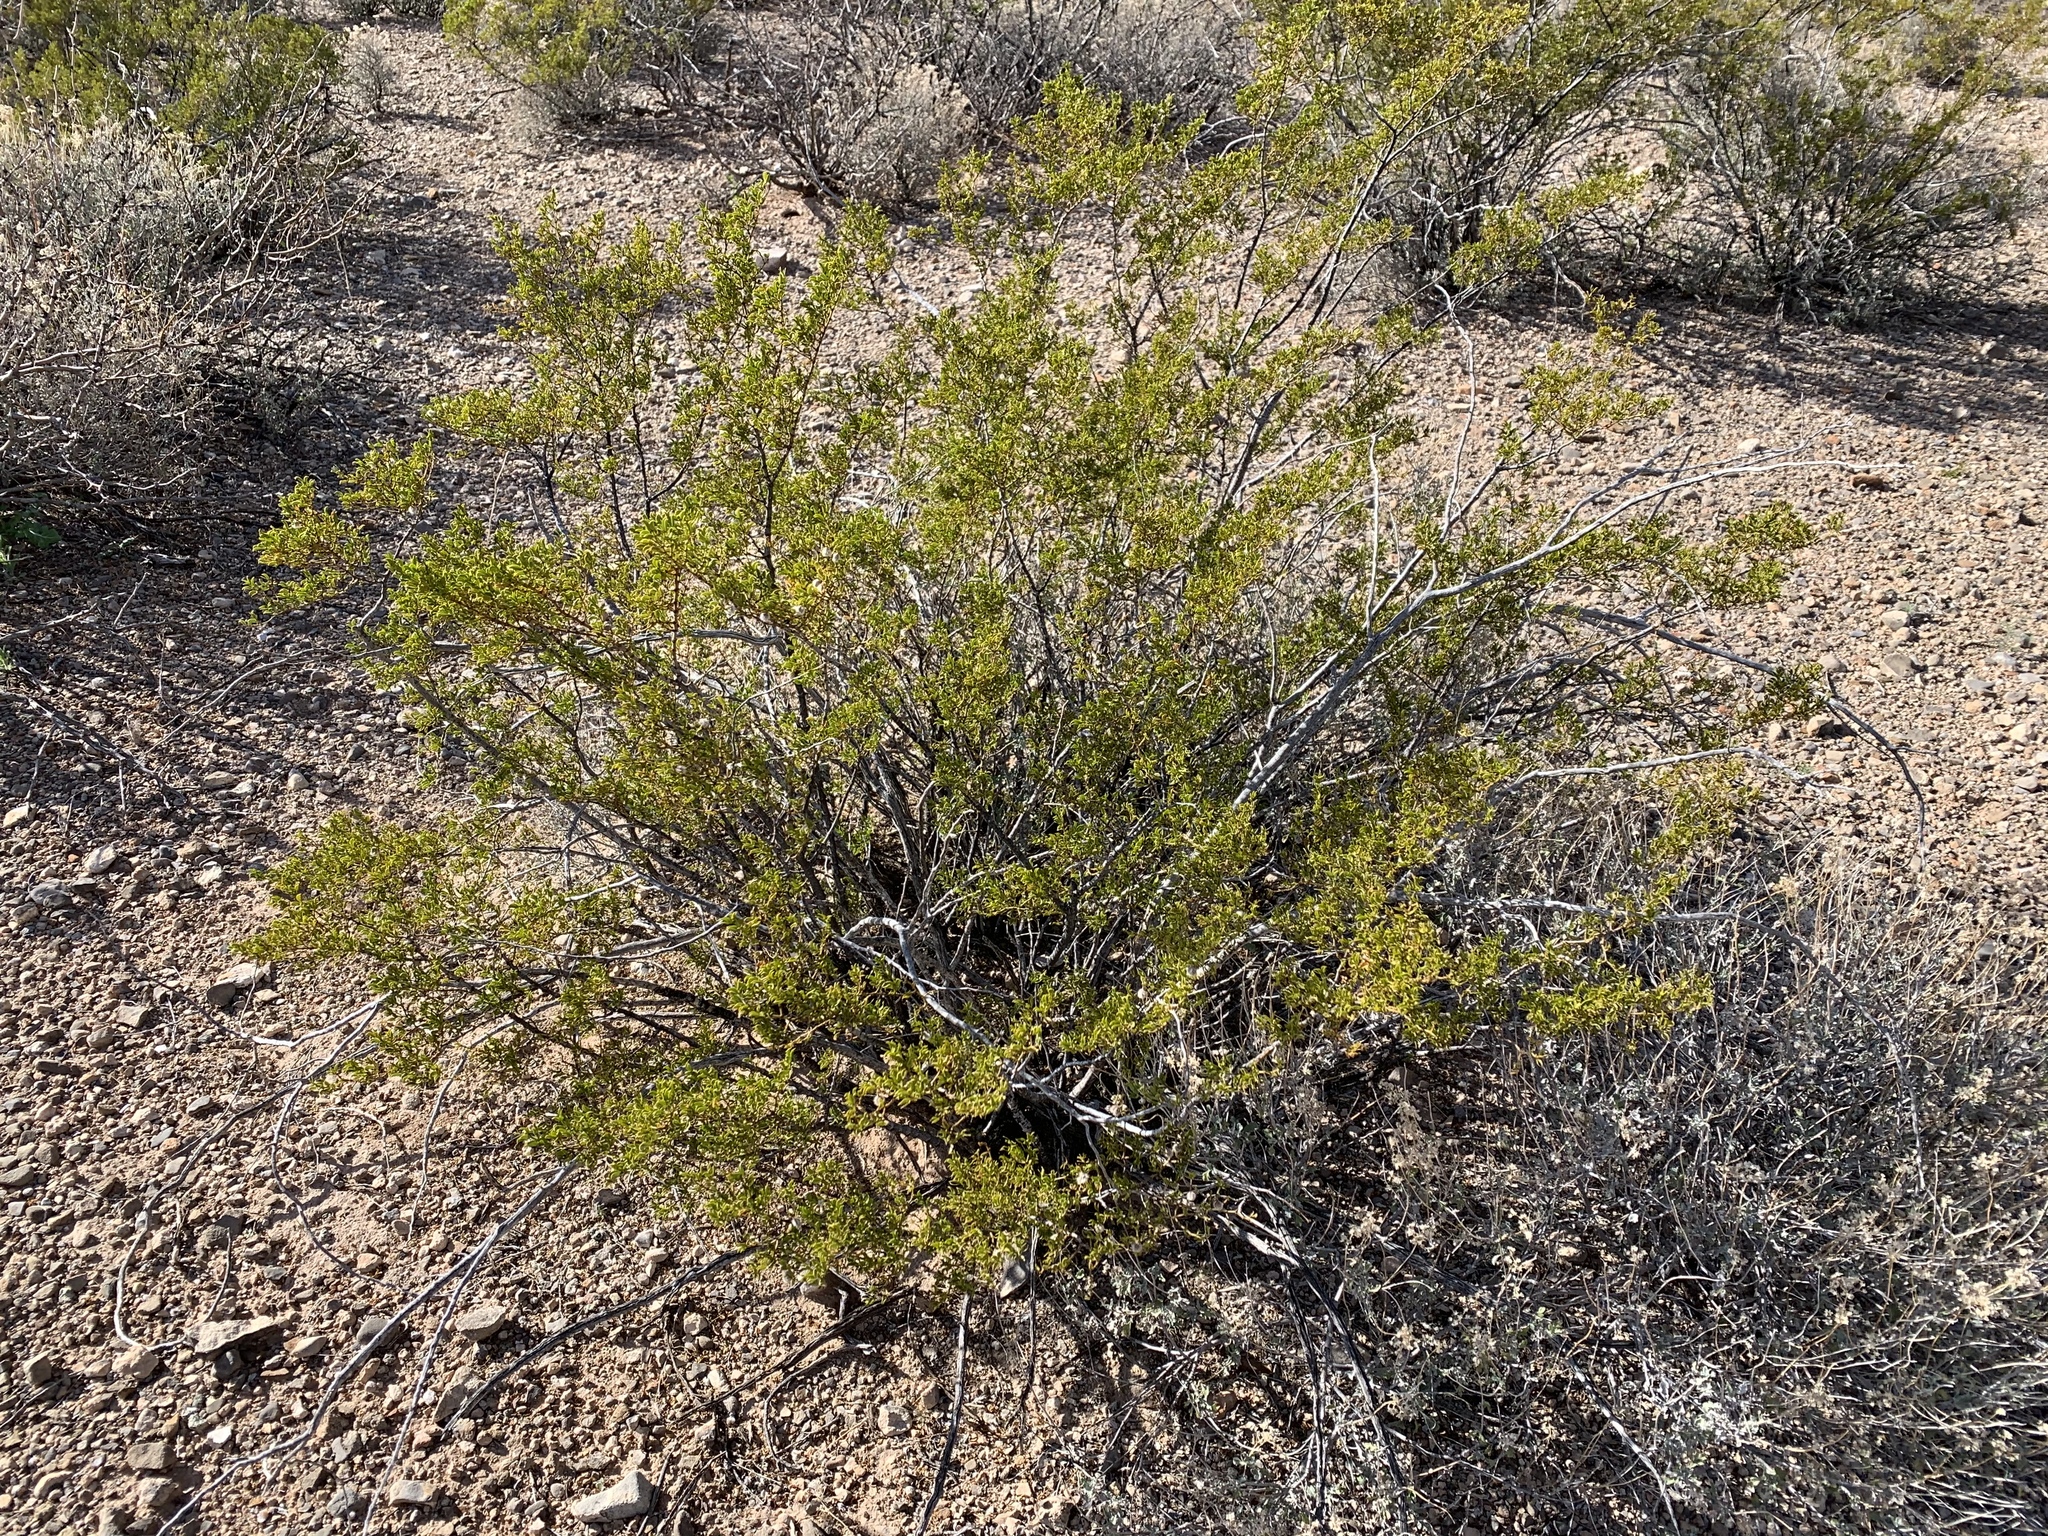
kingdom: Plantae
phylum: Tracheophyta
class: Magnoliopsida
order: Zygophyllales
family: Zygophyllaceae
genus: Larrea
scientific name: Larrea tridentata
